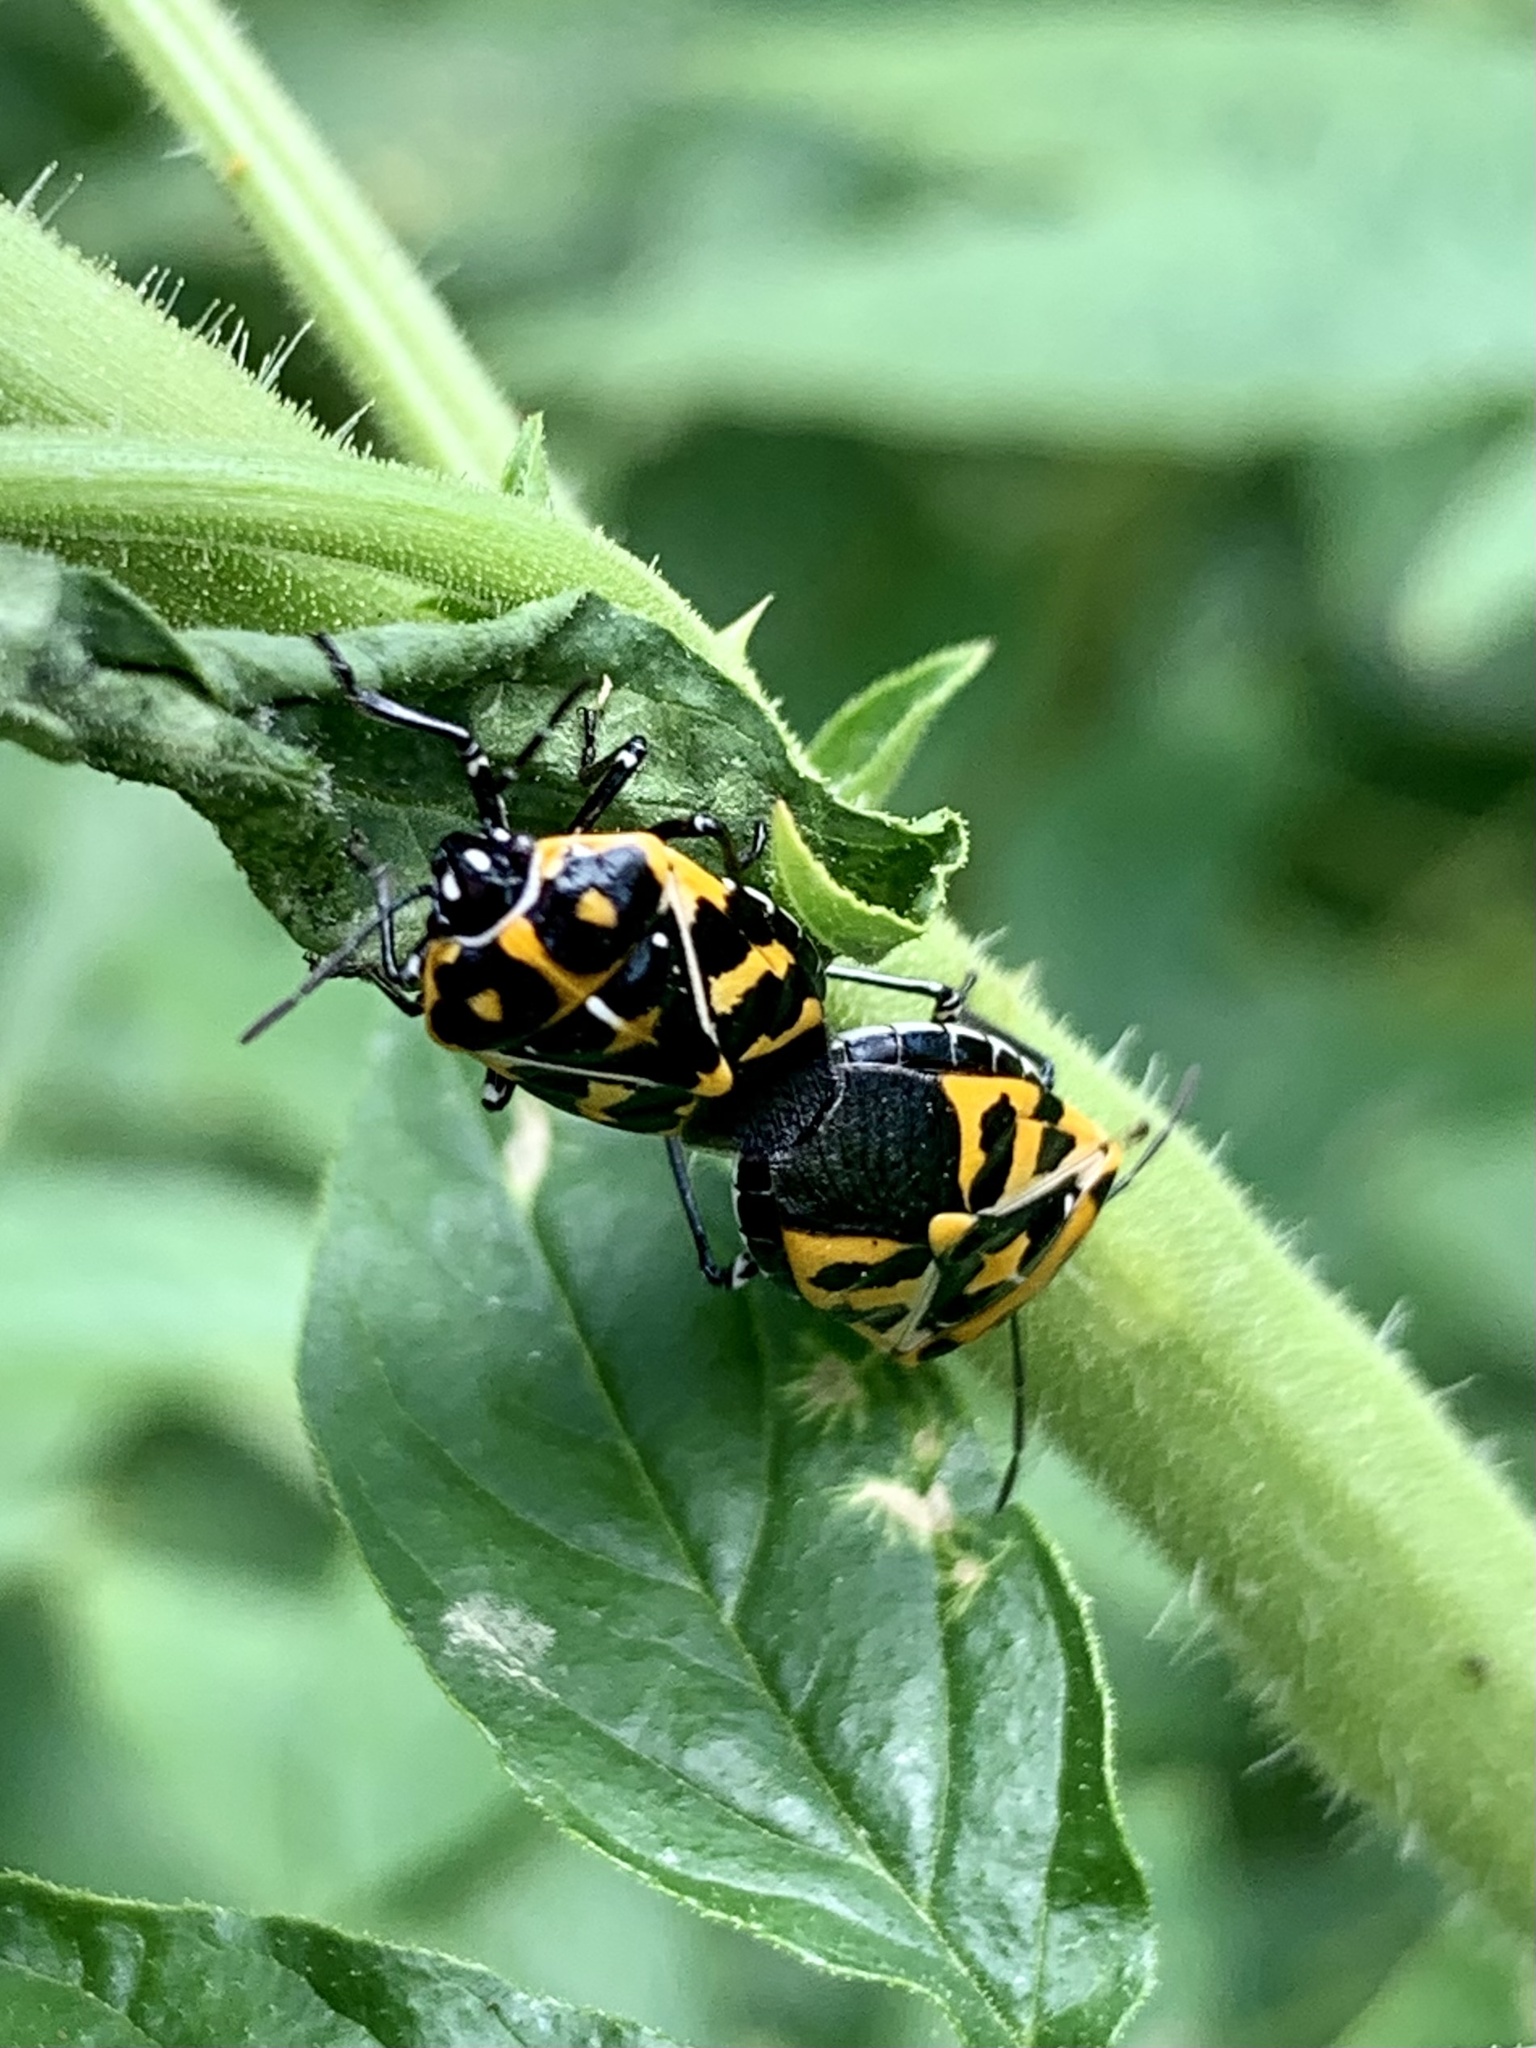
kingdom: Animalia
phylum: Arthropoda
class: Insecta
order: Hemiptera
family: Pentatomidae
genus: Murgantia
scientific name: Murgantia histrionica
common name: Harlequin bug
